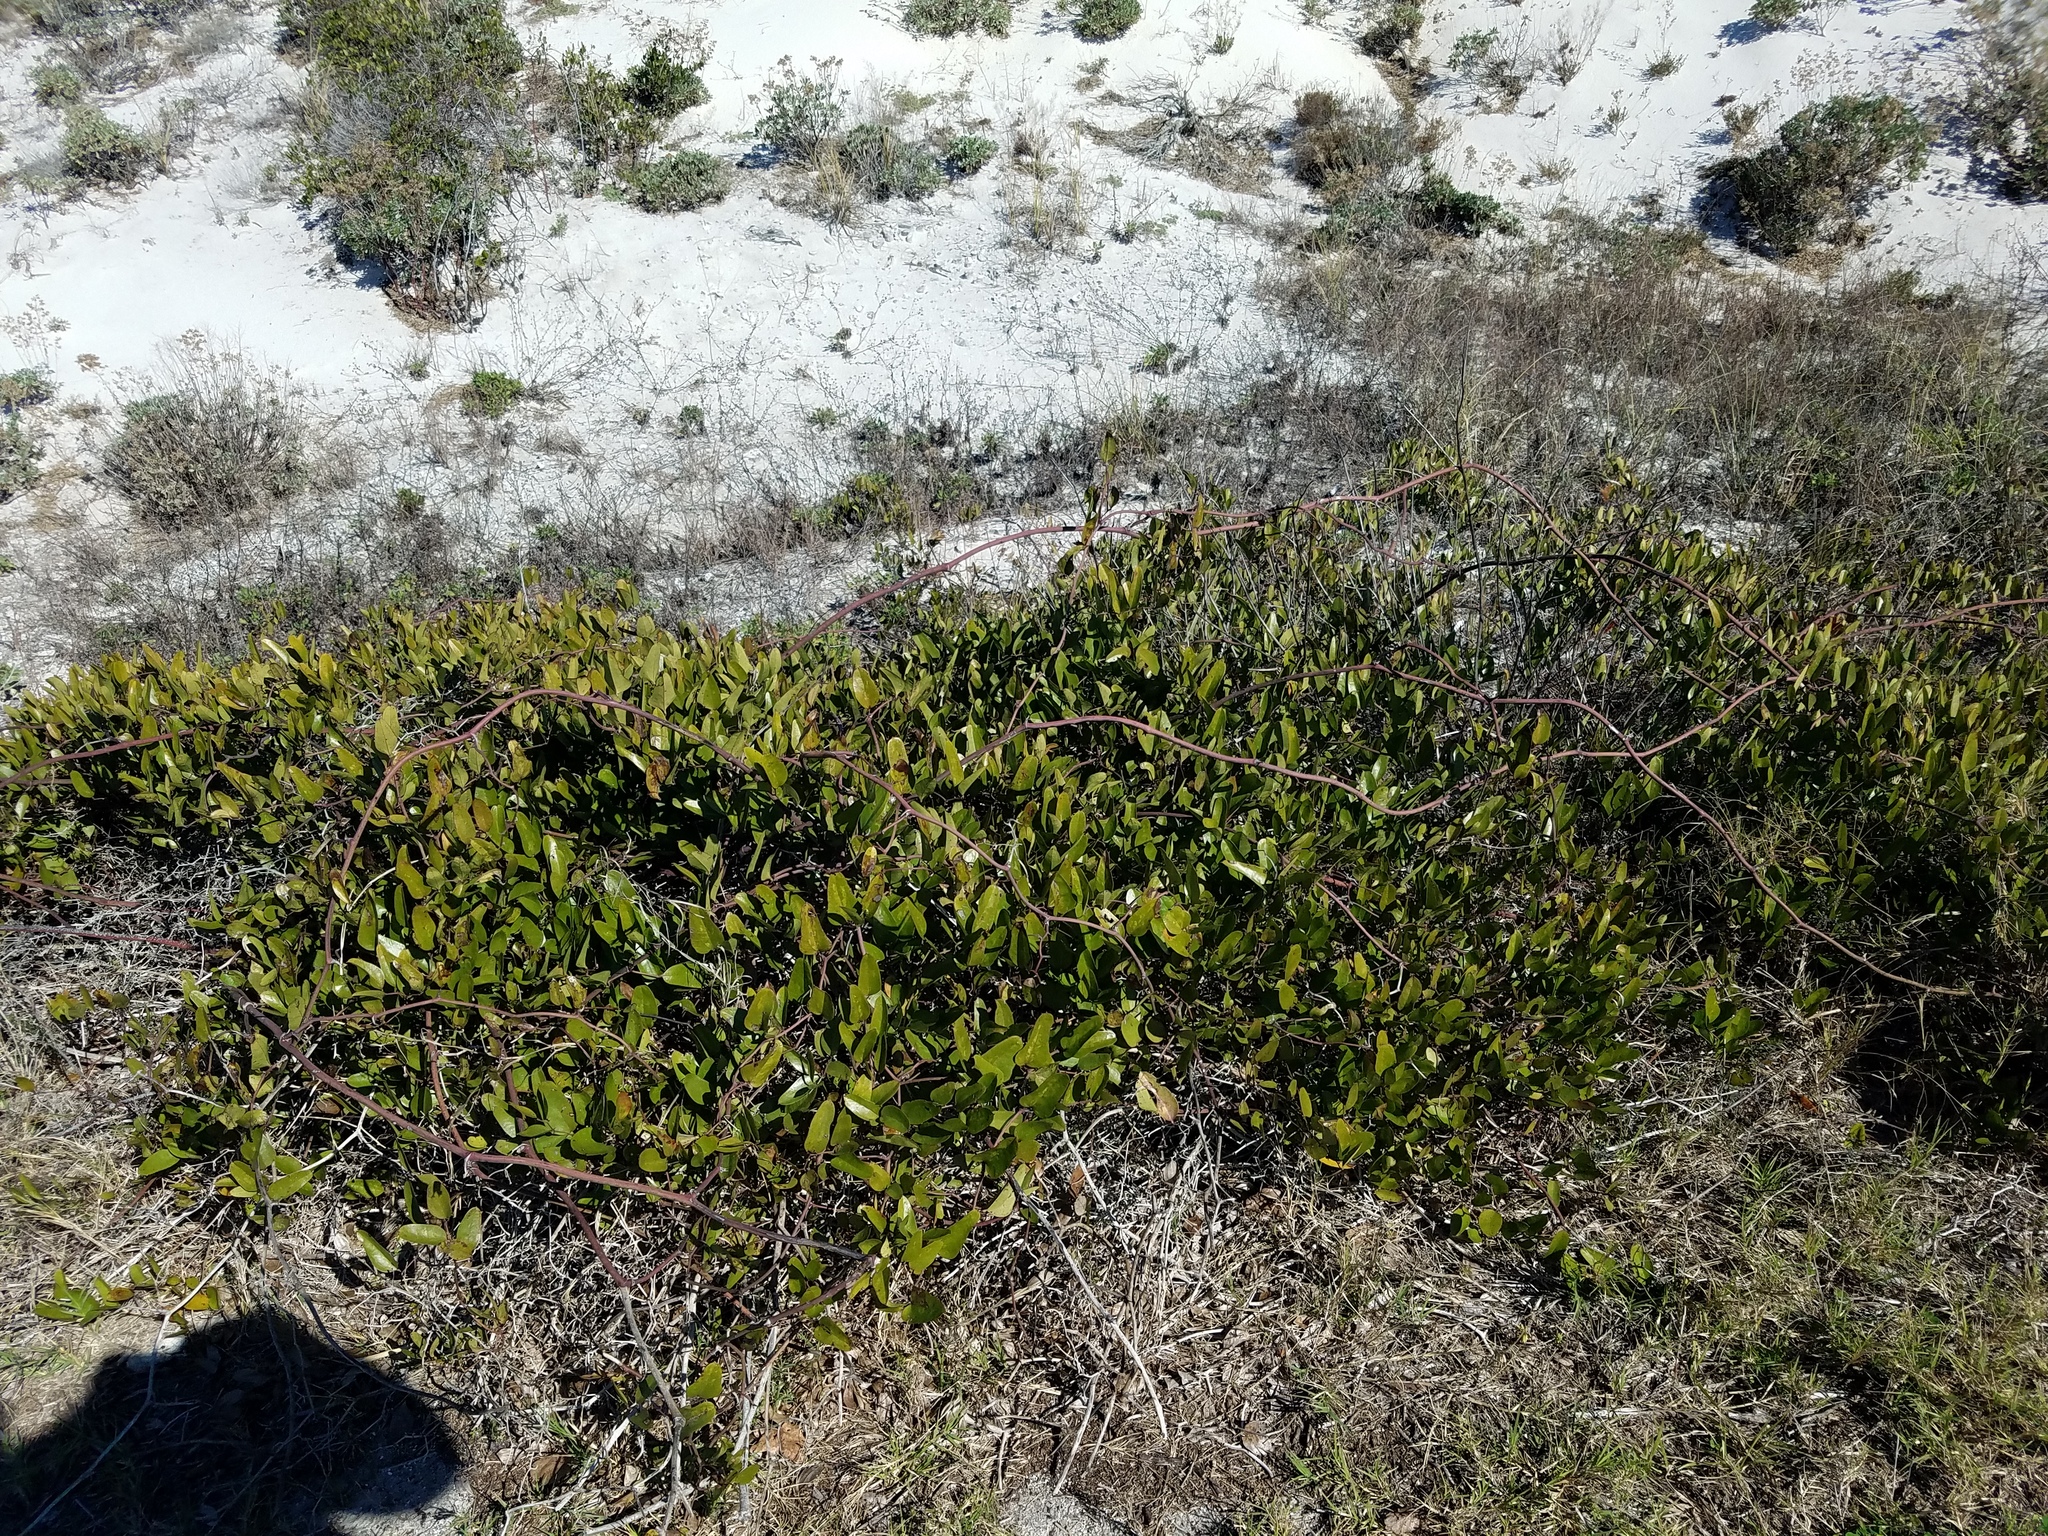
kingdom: Plantae
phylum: Tracheophyta
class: Liliopsida
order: Liliales
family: Smilacaceae
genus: Smilax
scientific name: Smilax auriculata
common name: Wild bamboo
